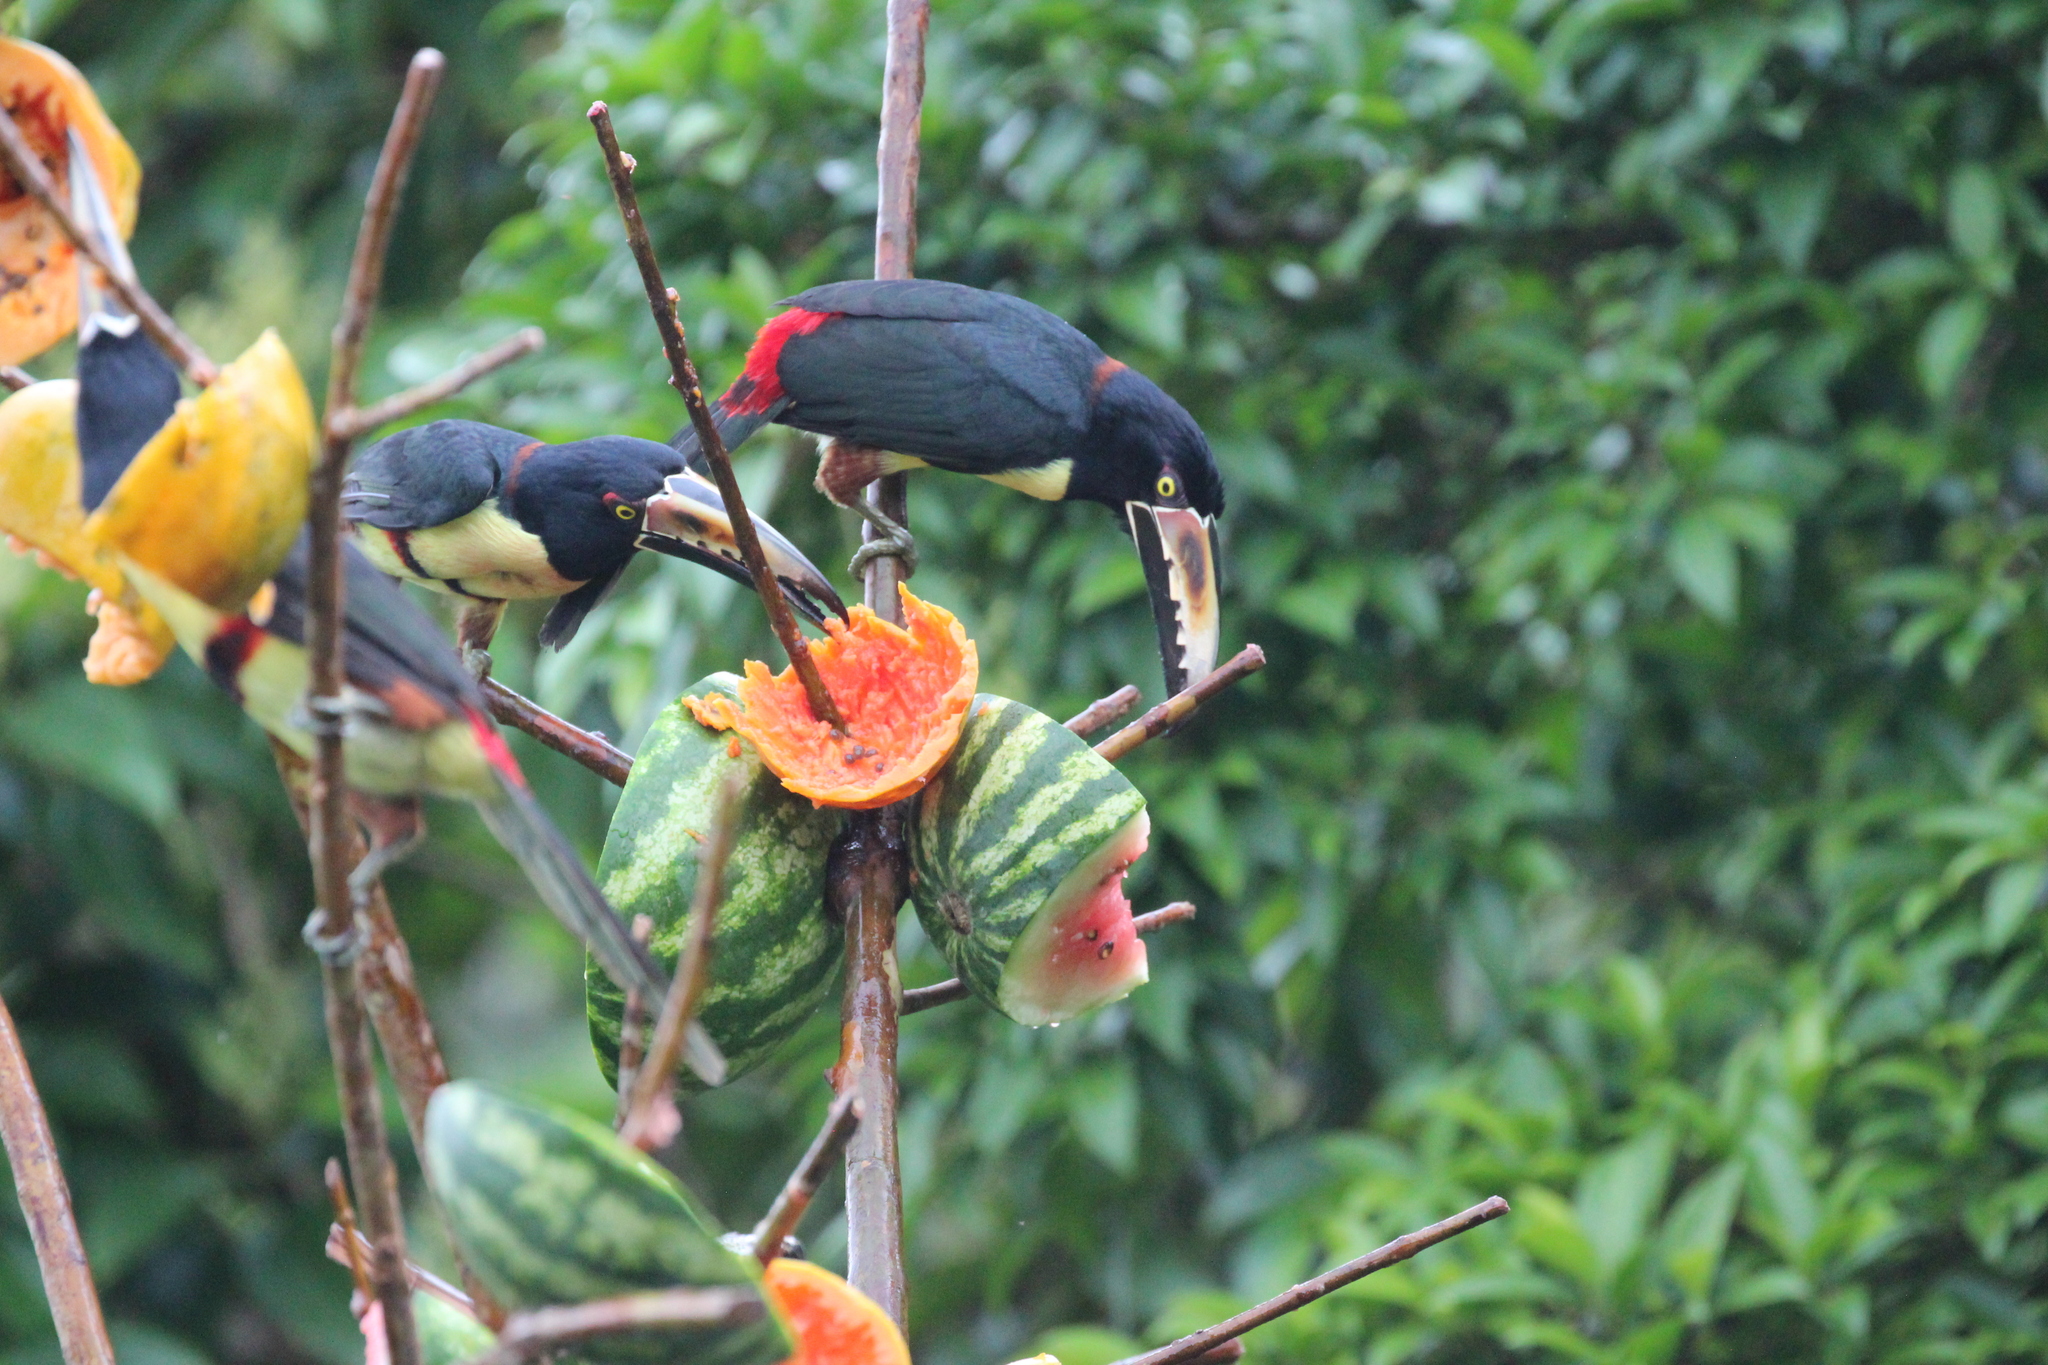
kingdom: Animalia
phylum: Chordata
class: Aves
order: Piciformes
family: Ramphastidae
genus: Pteroglossus
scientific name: Pteroglossus torquatus
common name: Collared aracari
